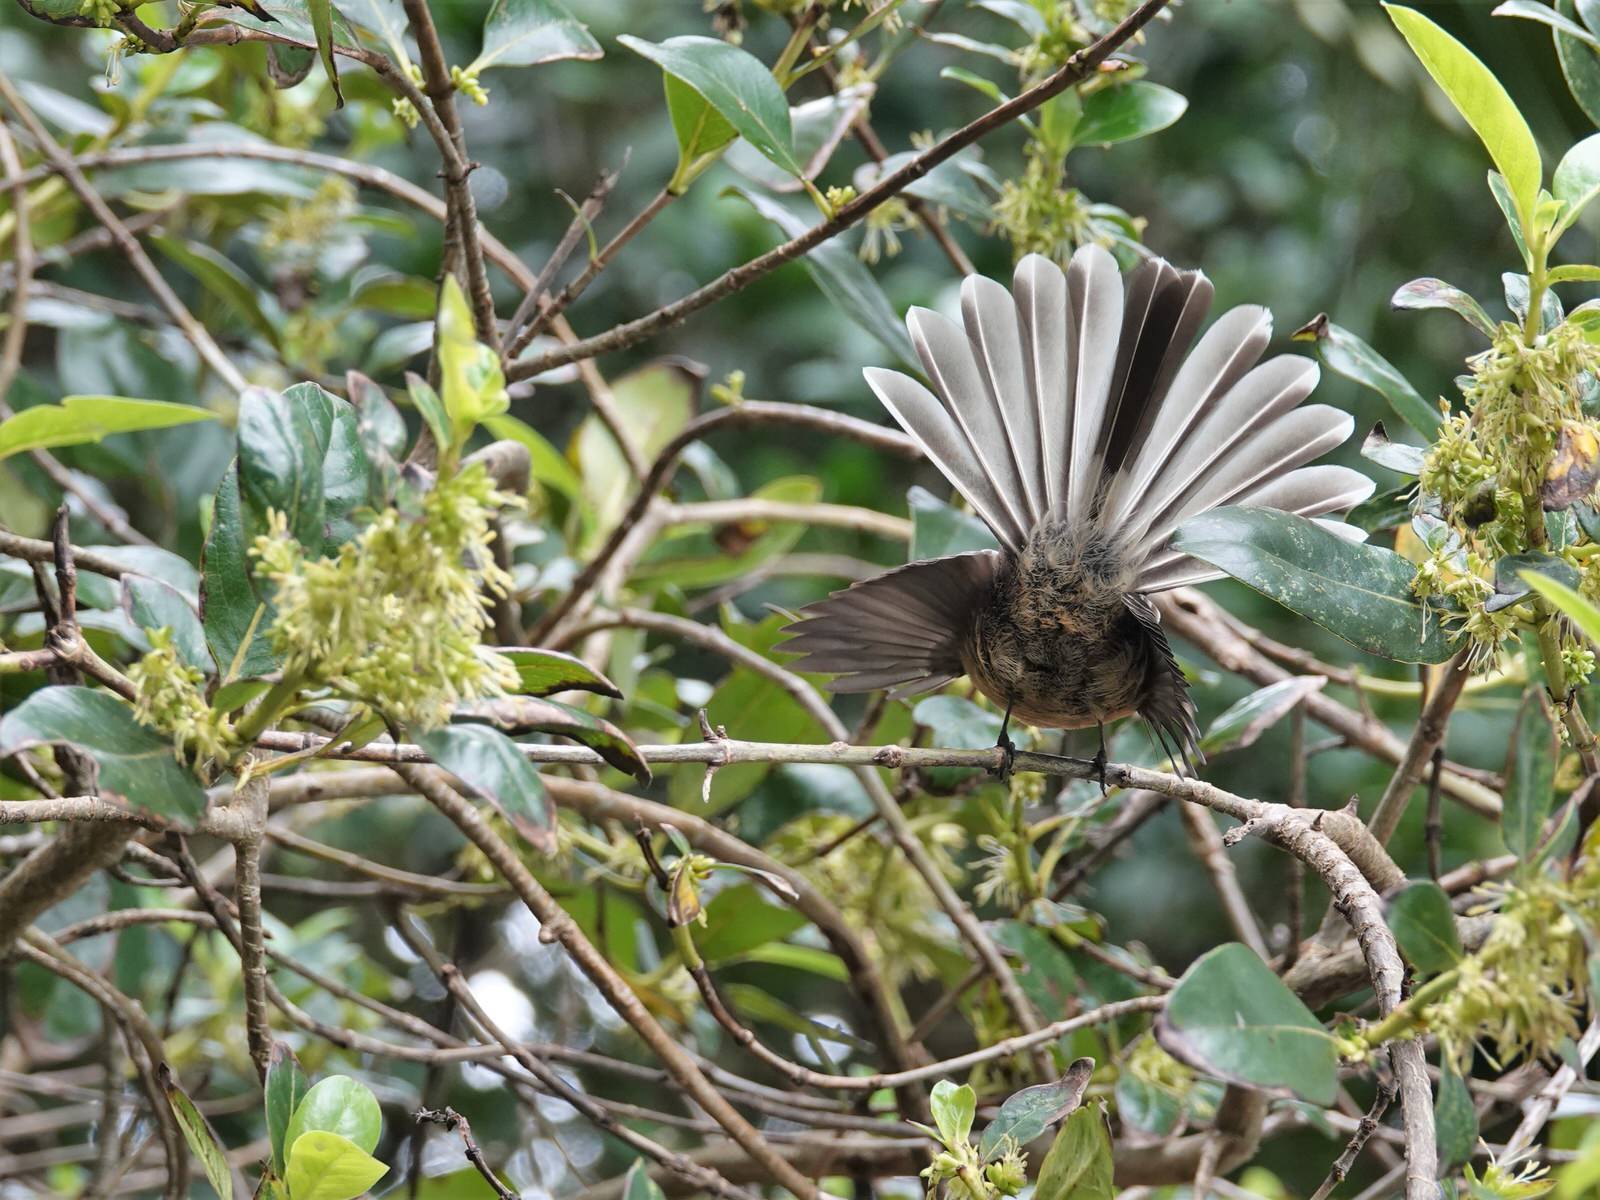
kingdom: Animalia
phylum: Chordata
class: Aves
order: Passeriformes
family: Rhipiduridae
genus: Rhipidura
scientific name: Rhipidura fuliginosa
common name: New zealand fantail
